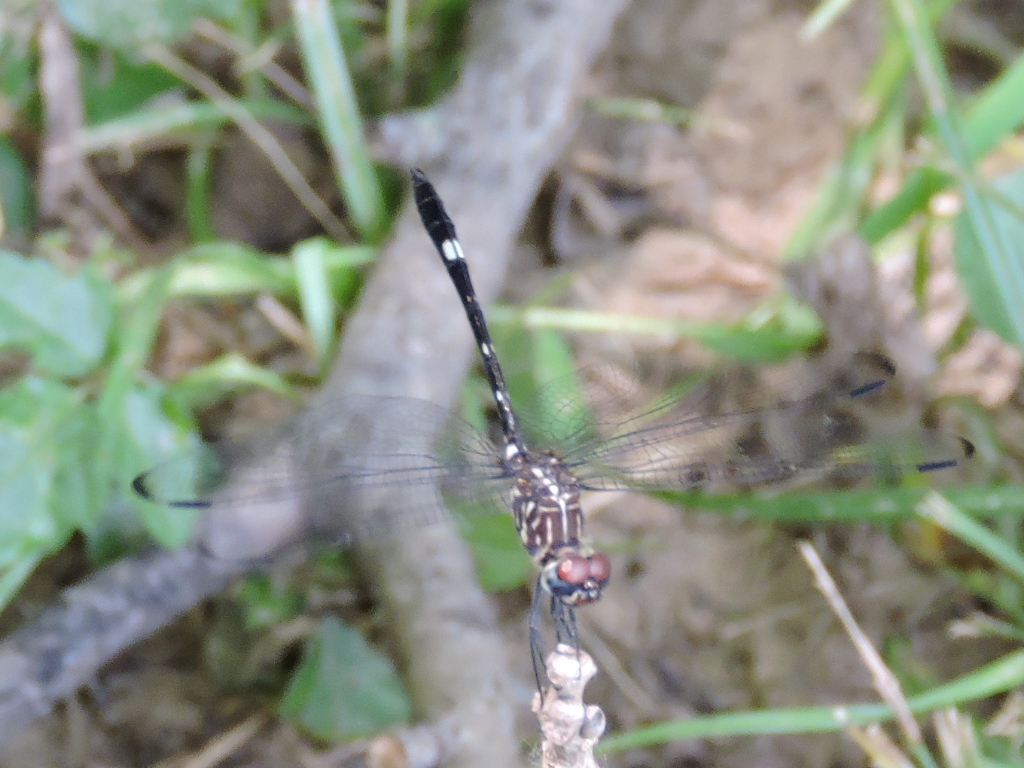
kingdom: Animalia
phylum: Arthropoda
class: Insecta
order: Odonata
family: Libellulidae
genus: Dythemis
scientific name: Dythemis velox
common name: Swift setwing
